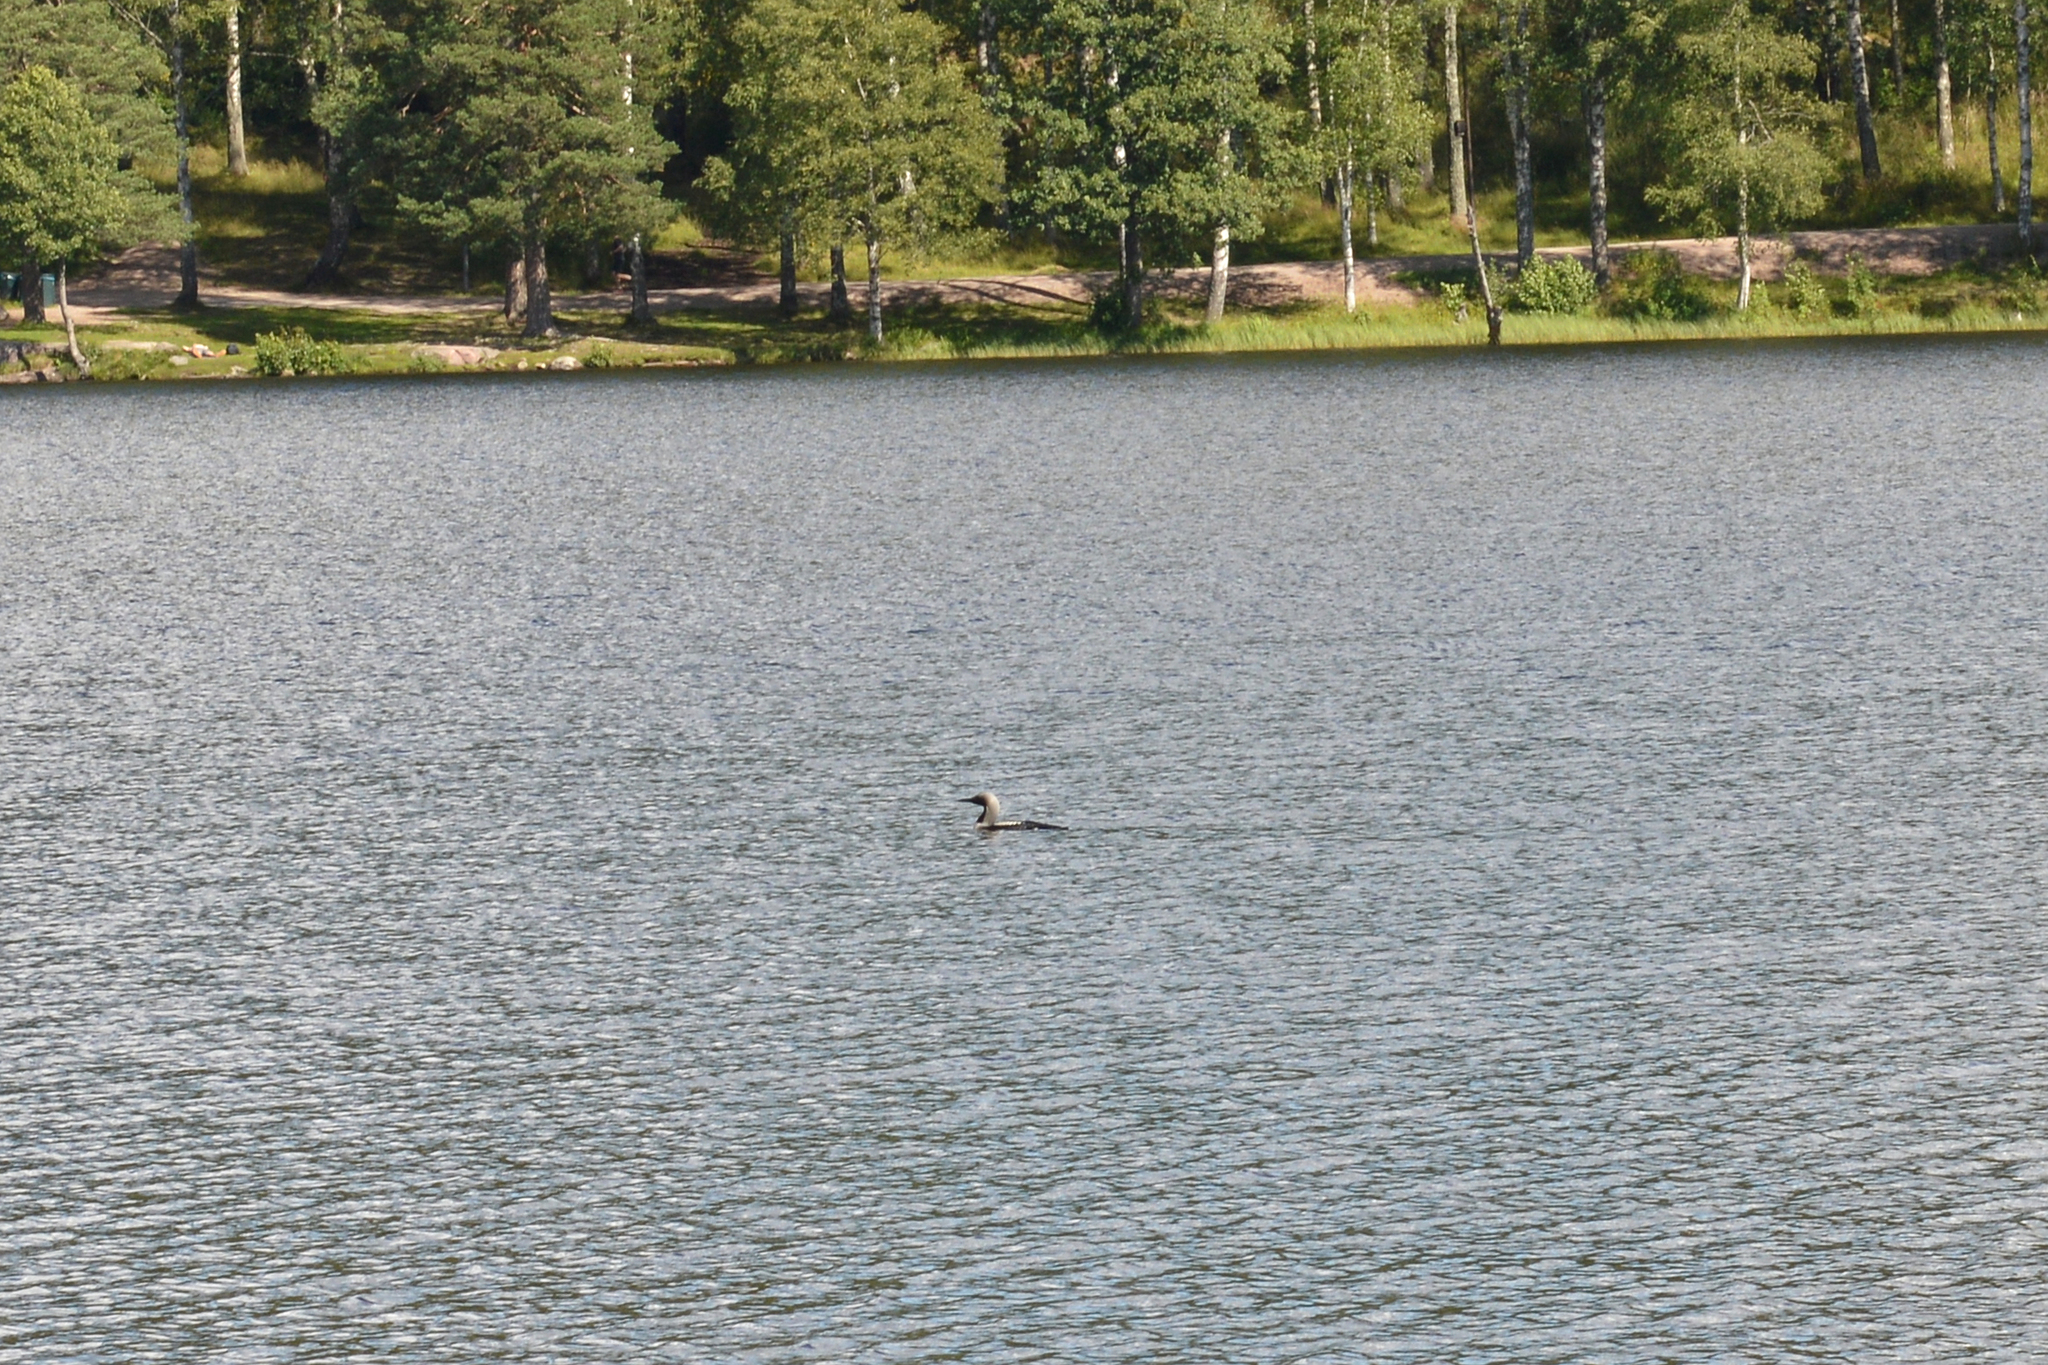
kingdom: Animalia
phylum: Chordata
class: Aves
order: Gaviiformes
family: Gaviidae
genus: Gavia
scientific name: Gavia arctica
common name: Black-throated loon
